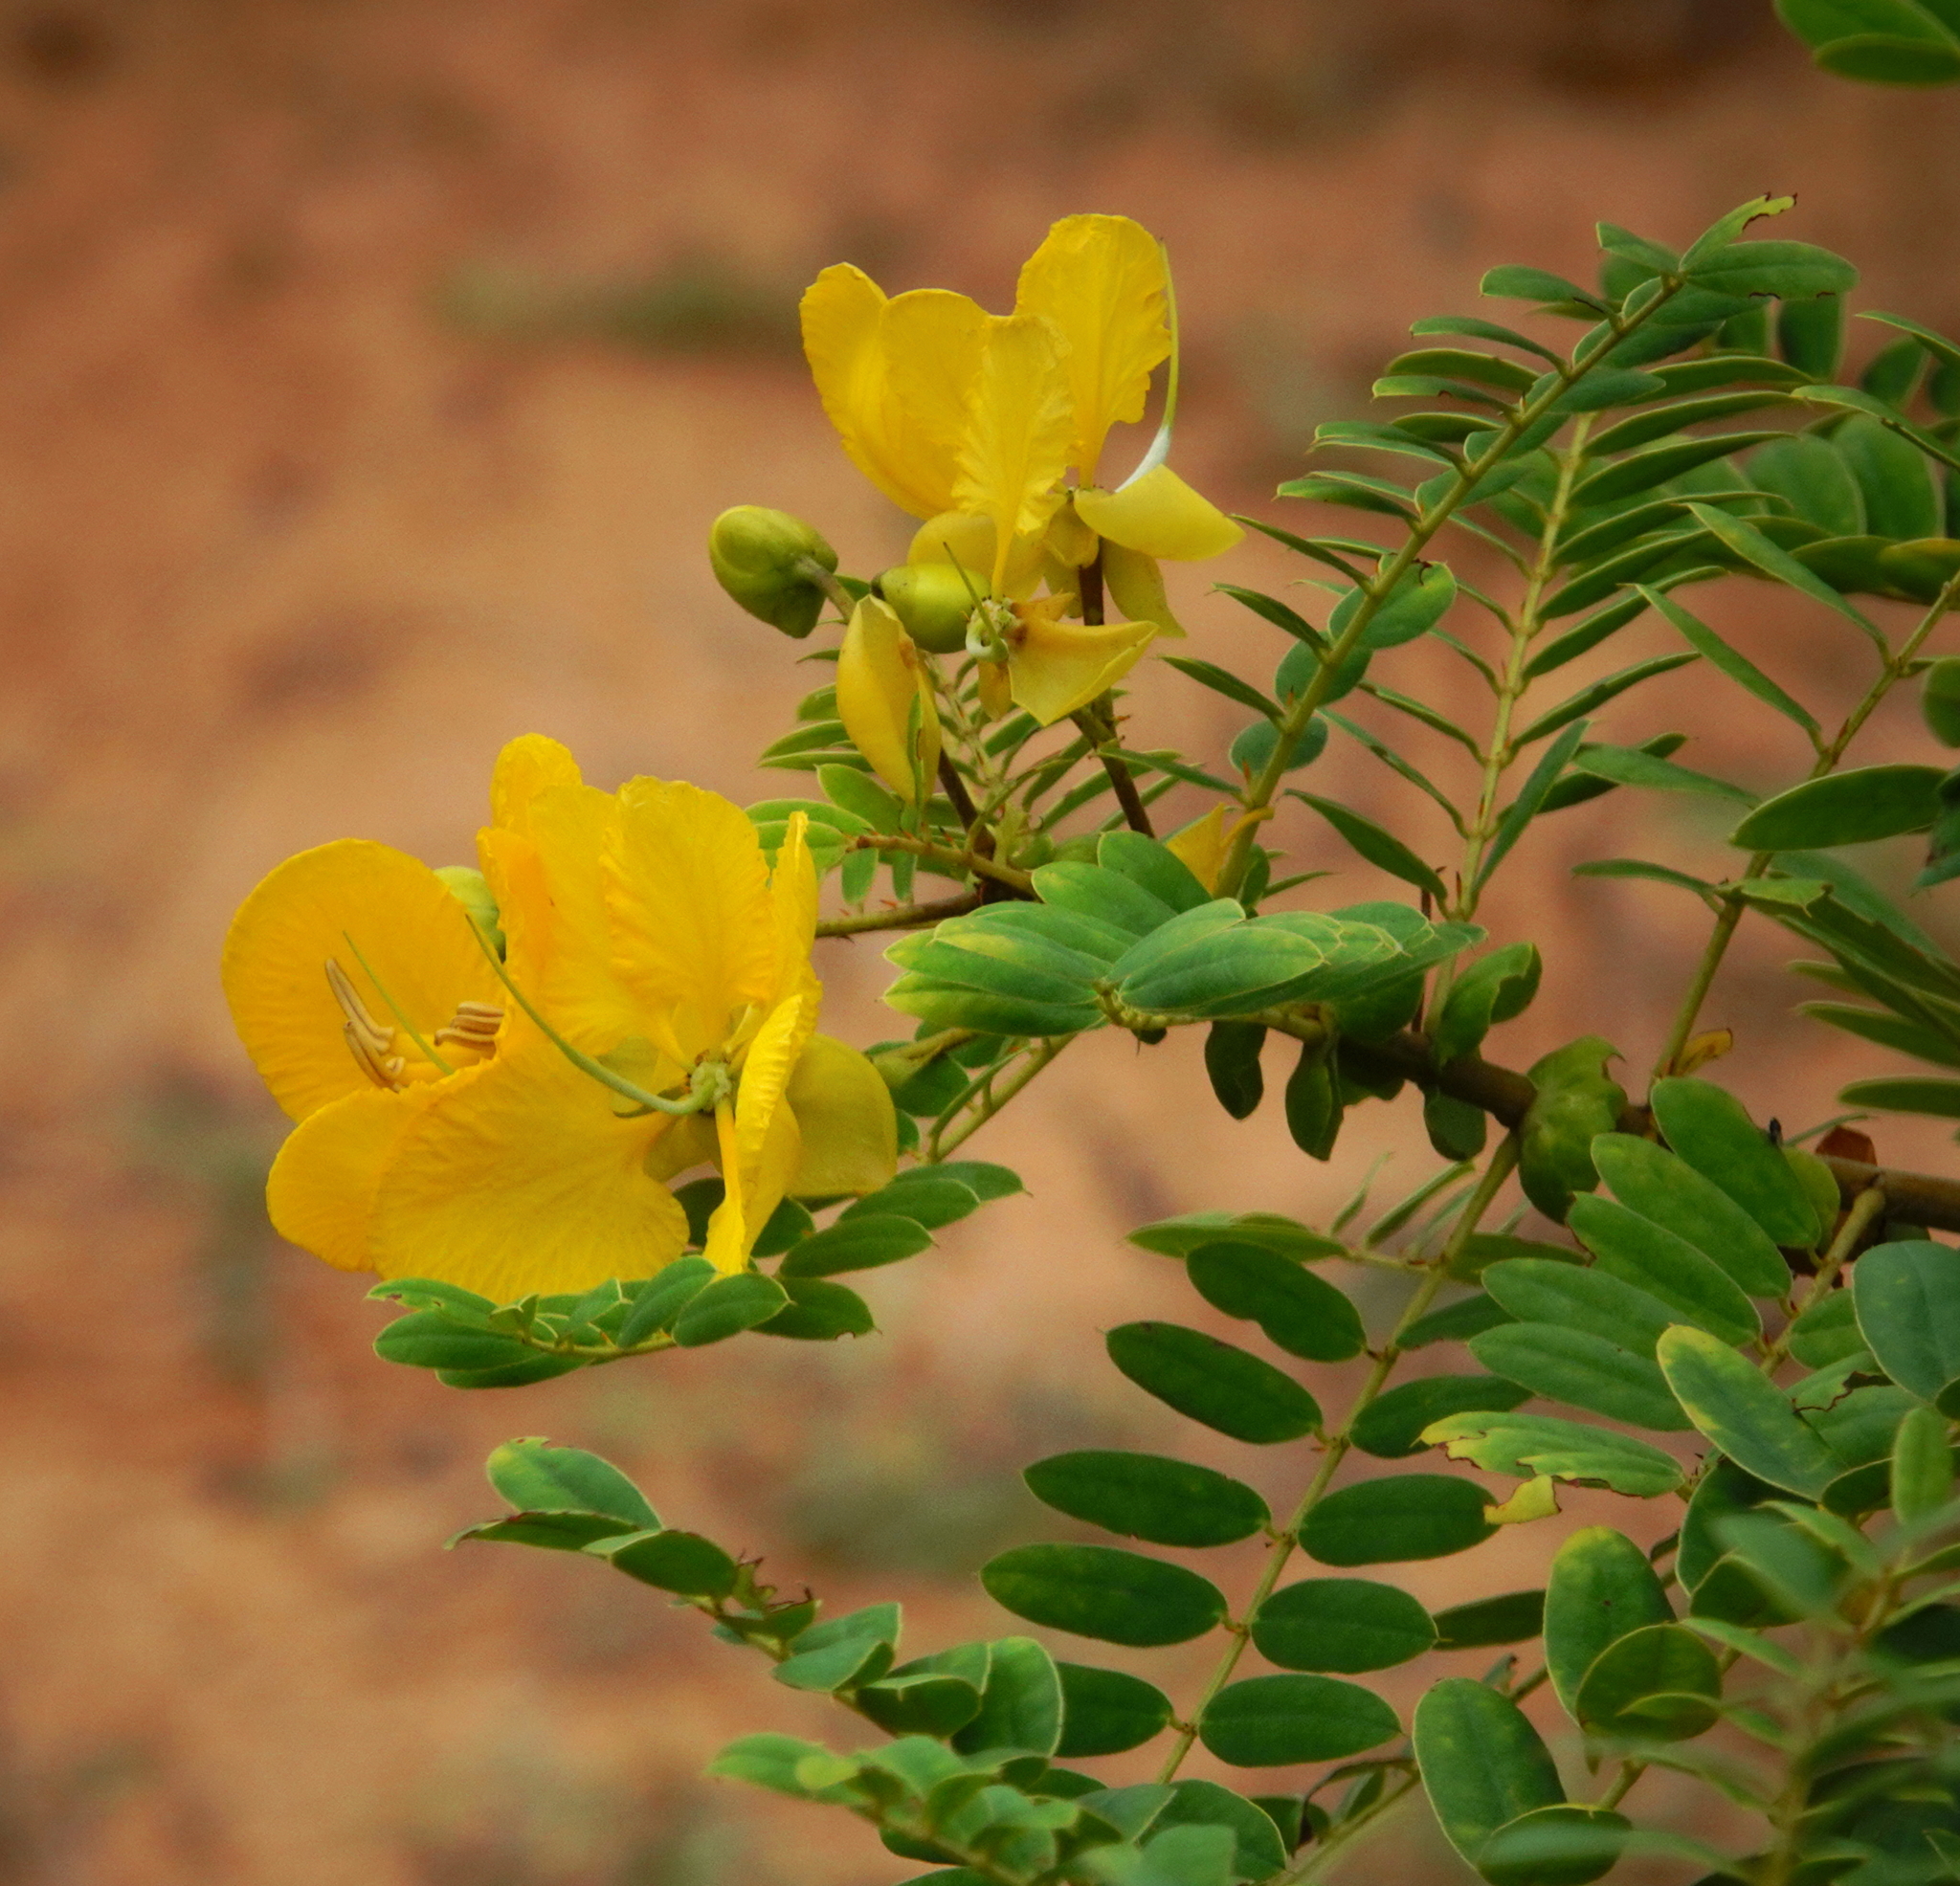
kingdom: Plantae
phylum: Tracheophyta
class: Magnoliopsida
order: Fabales
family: Fabaceae
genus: Senna
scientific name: Senna auriculata
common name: Tanner's cassia
